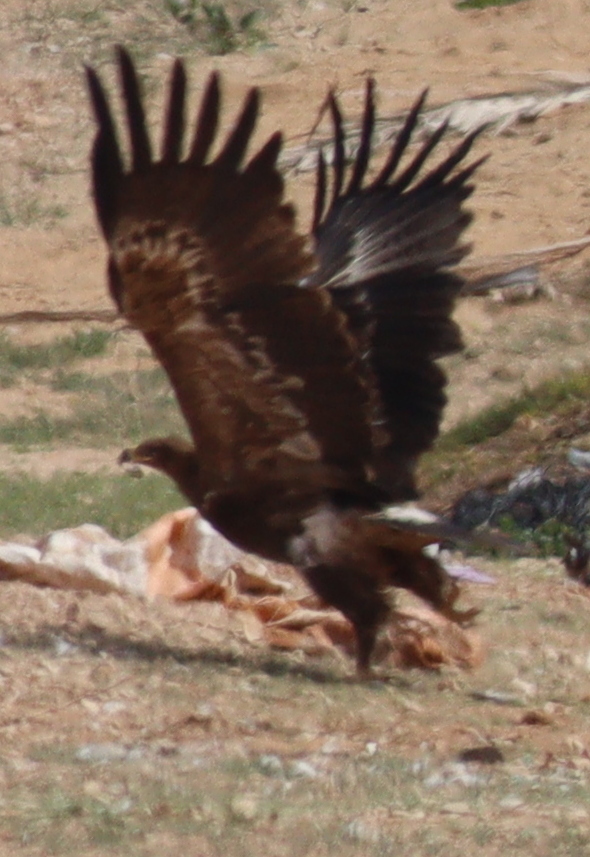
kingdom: Animalia
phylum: Chordata
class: Aves
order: Accipitriformes
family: Accipitridae
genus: Aquila
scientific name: Aquila nipalensis
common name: Steppe eagle
